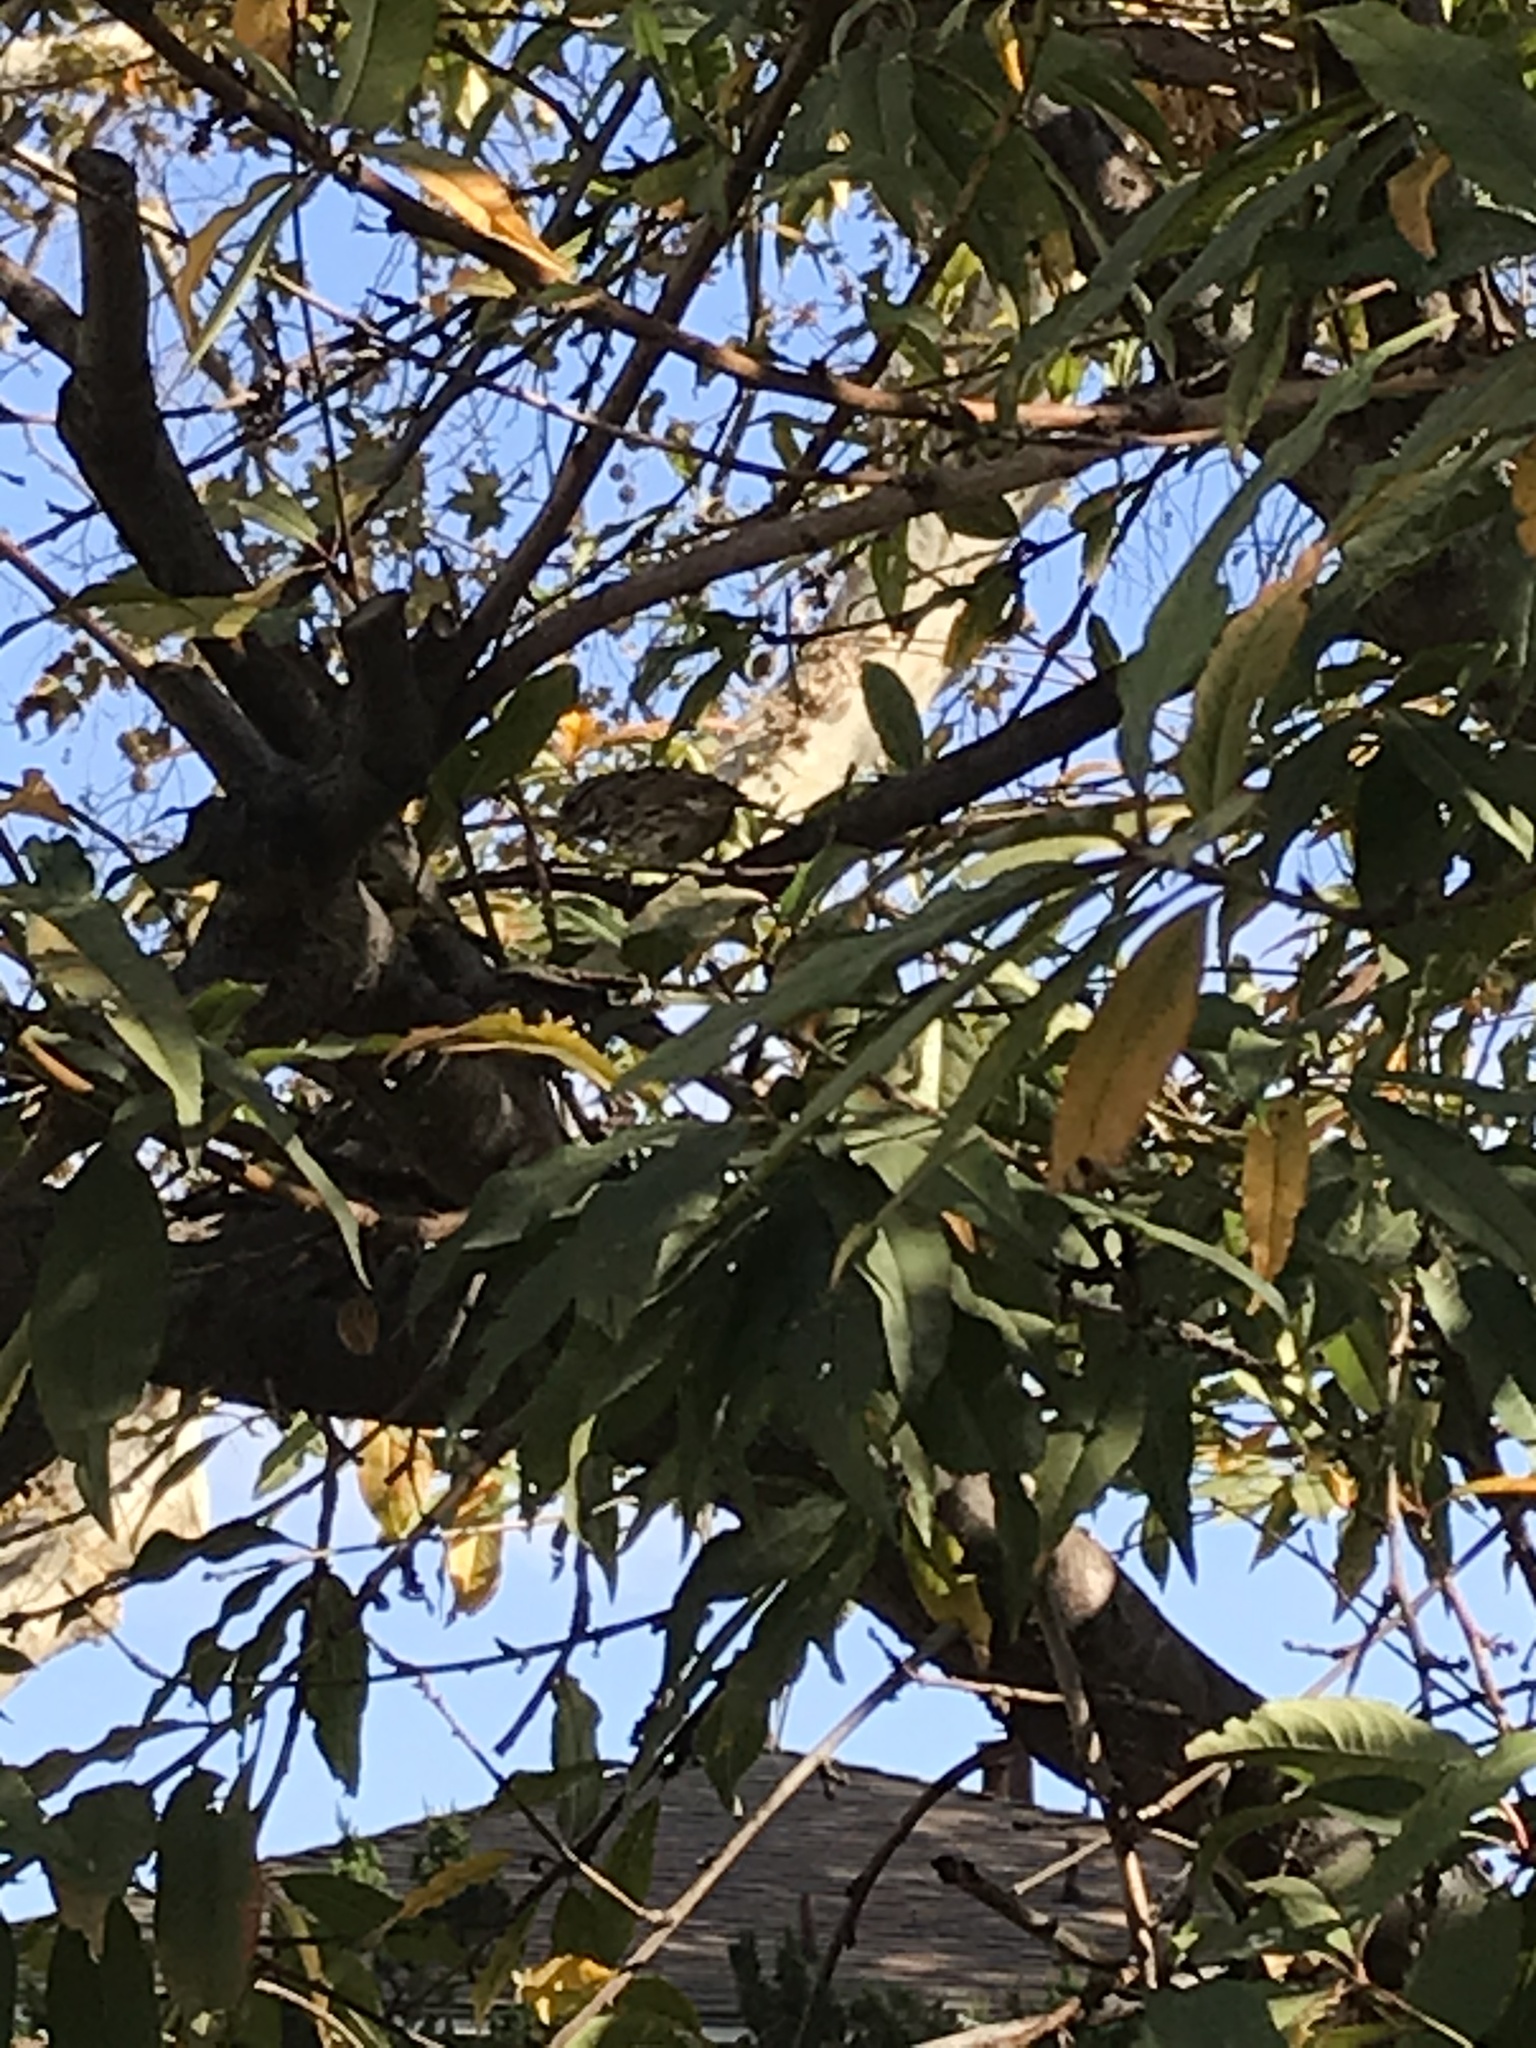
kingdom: Animalia
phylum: Chordata
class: Aves
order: Passeriformes
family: Passerellidae
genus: Melospiza
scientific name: Melospiza melodia
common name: Song sparrow
